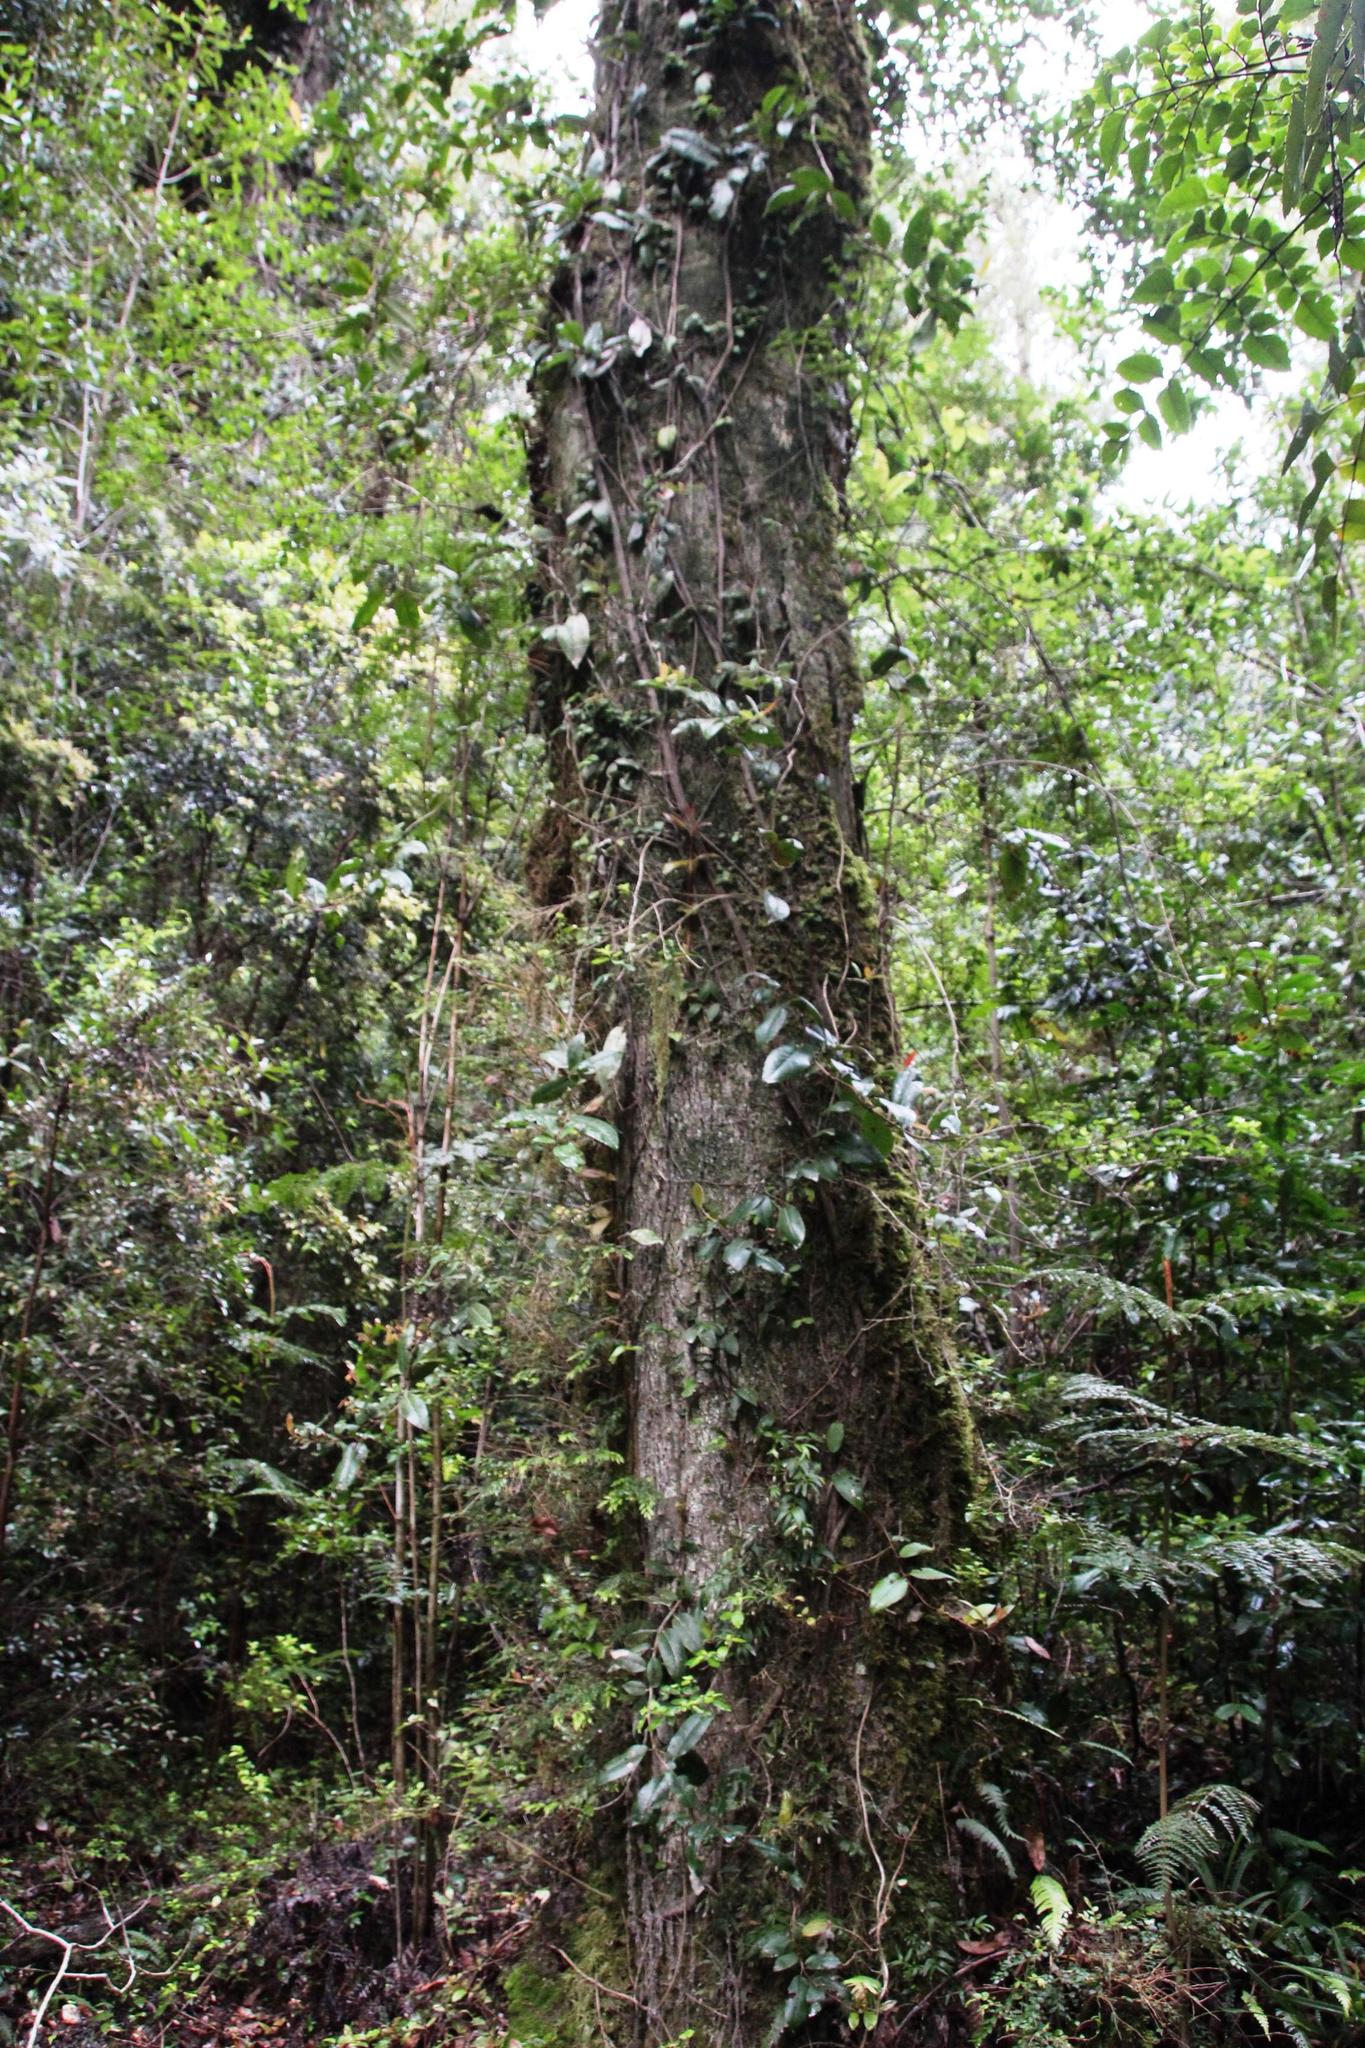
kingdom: Plantae
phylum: Tracheophyta
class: Magnoliopsida
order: Cornales
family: Hydrangeaceae
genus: Hydrangea
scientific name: Hydrangea serratifolia
